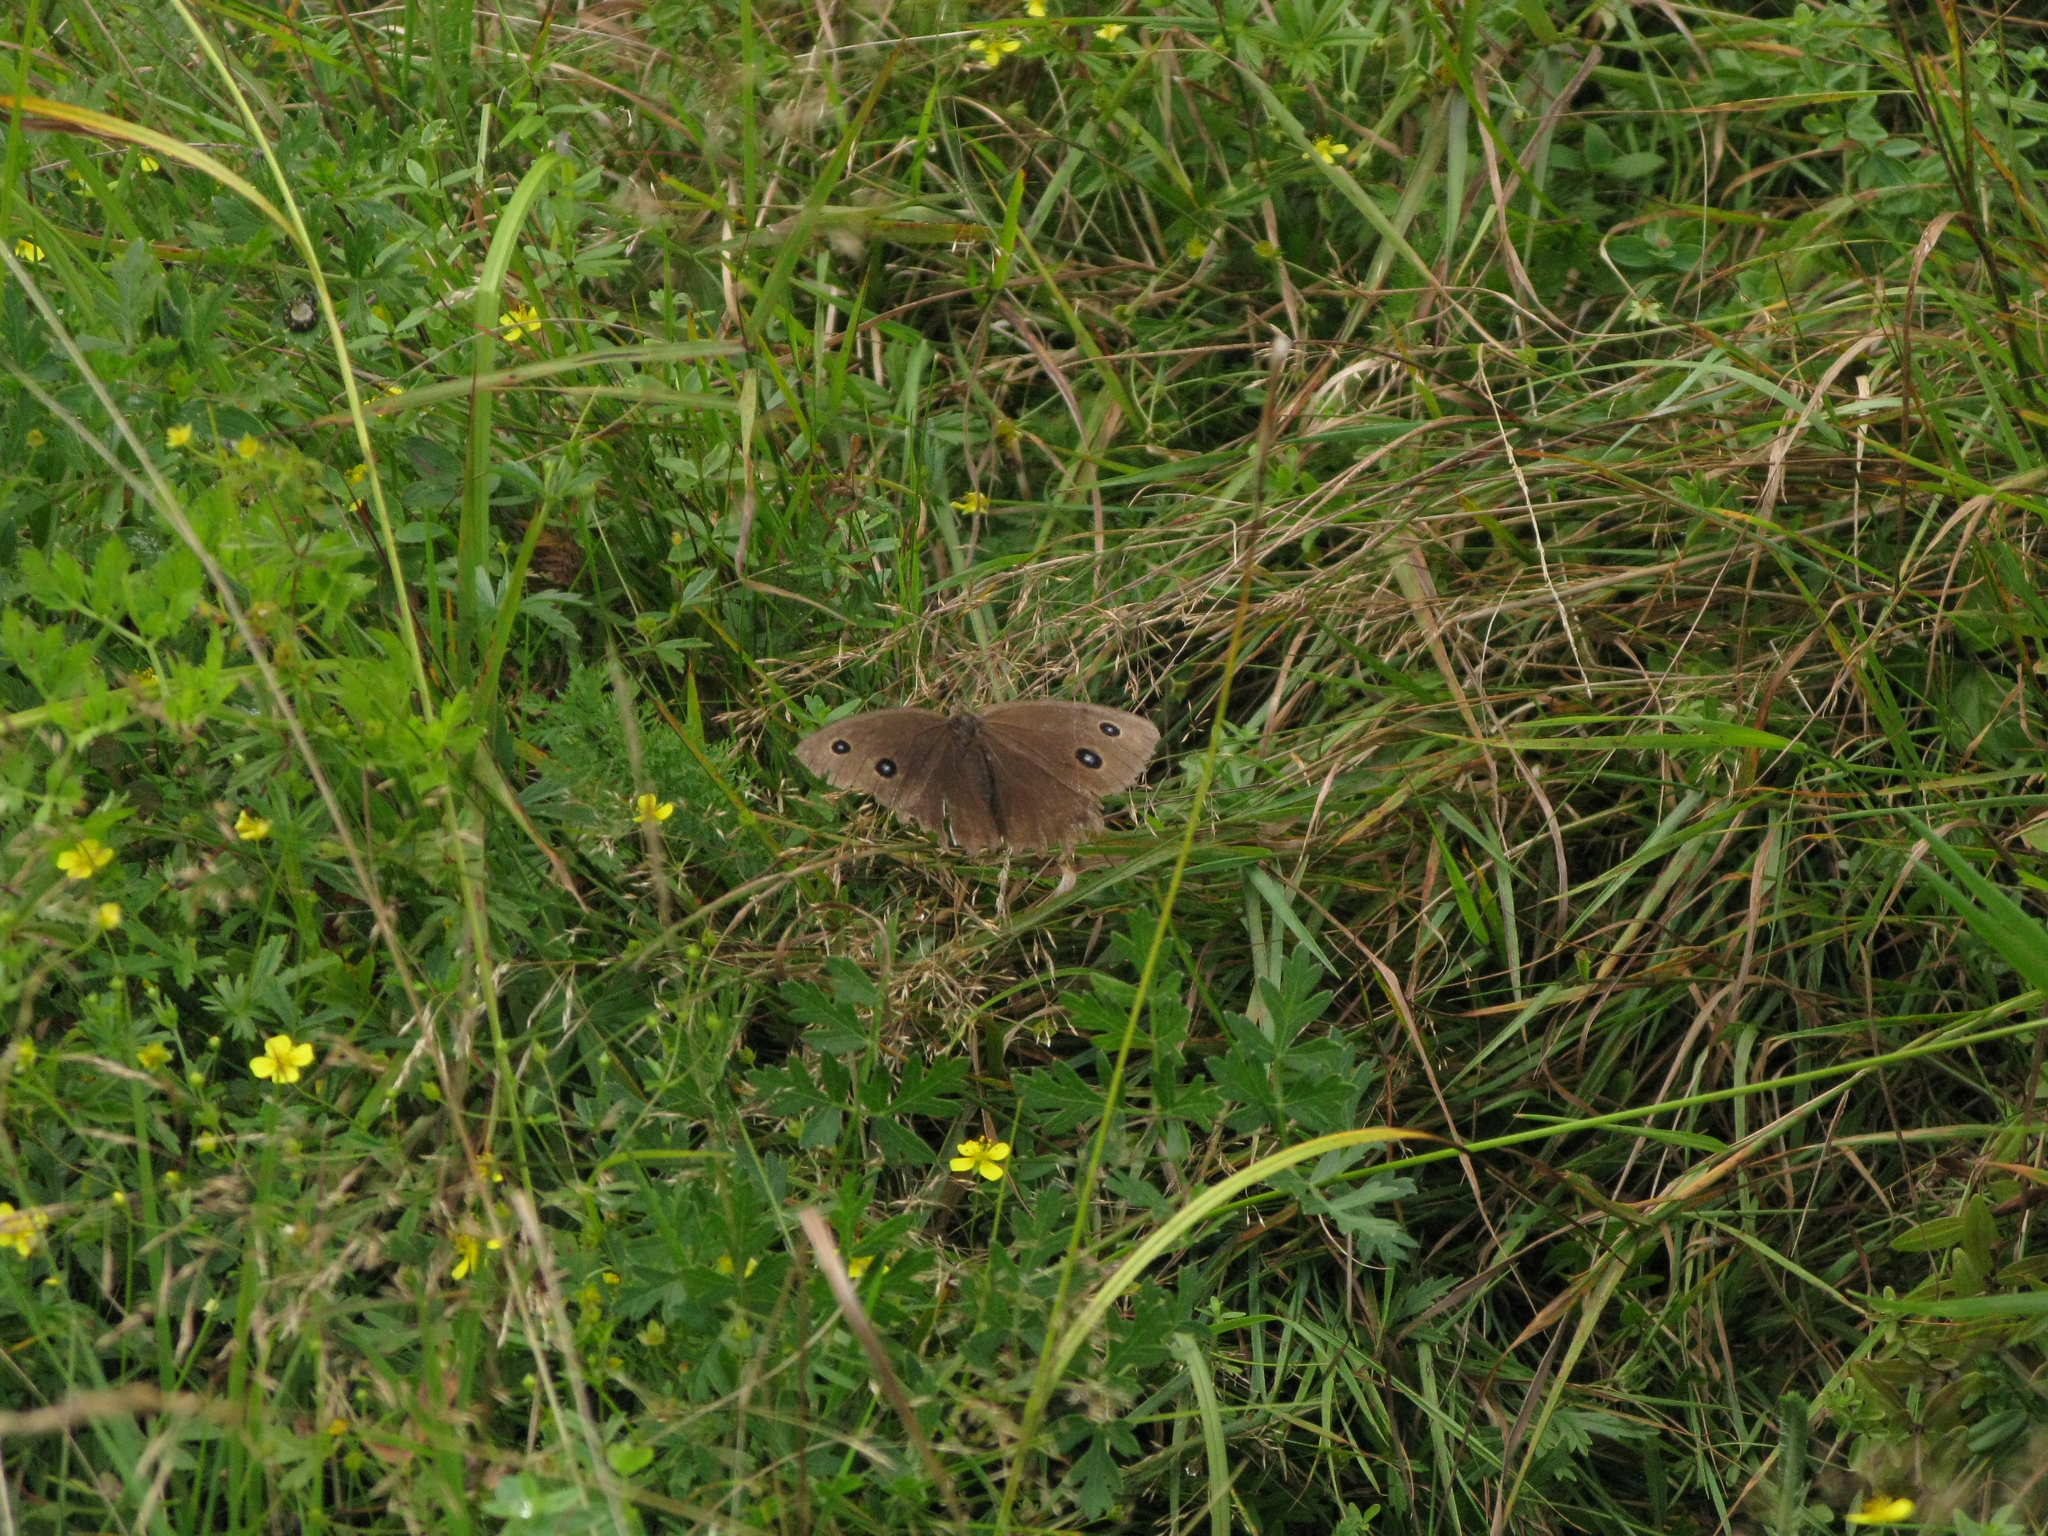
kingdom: Animalia
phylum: Arthropoda
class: Insecta
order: Lepidoptera
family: Nymphalidae
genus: Minois
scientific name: Minois dryas
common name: Dryad
